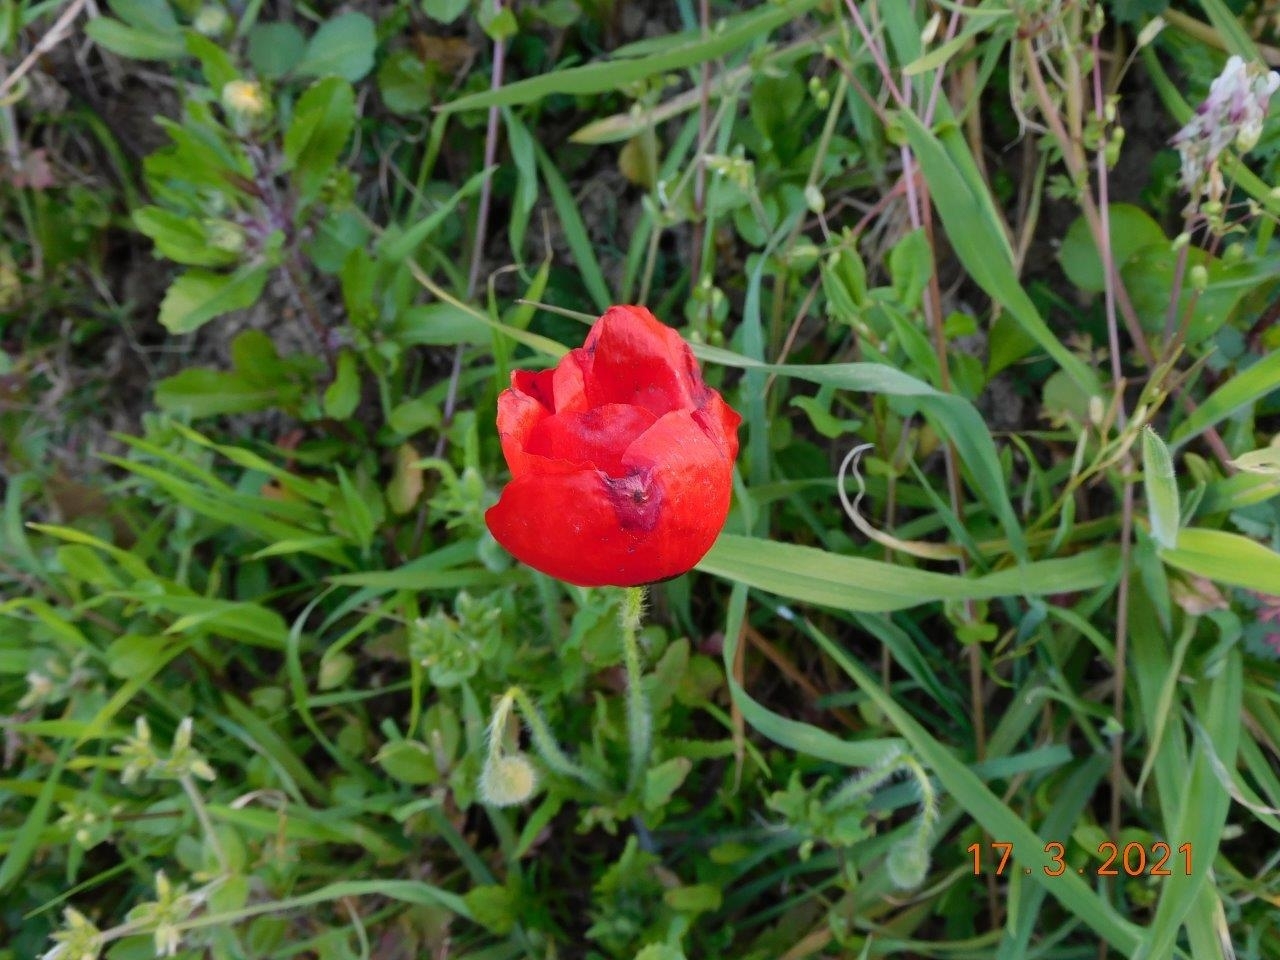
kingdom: Plantae
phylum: Tracheophyta
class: Magnoliopsida
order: Ranunculales
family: Papaveraceae
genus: Papaver
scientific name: Papaver rhoeas
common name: Corn poppy
